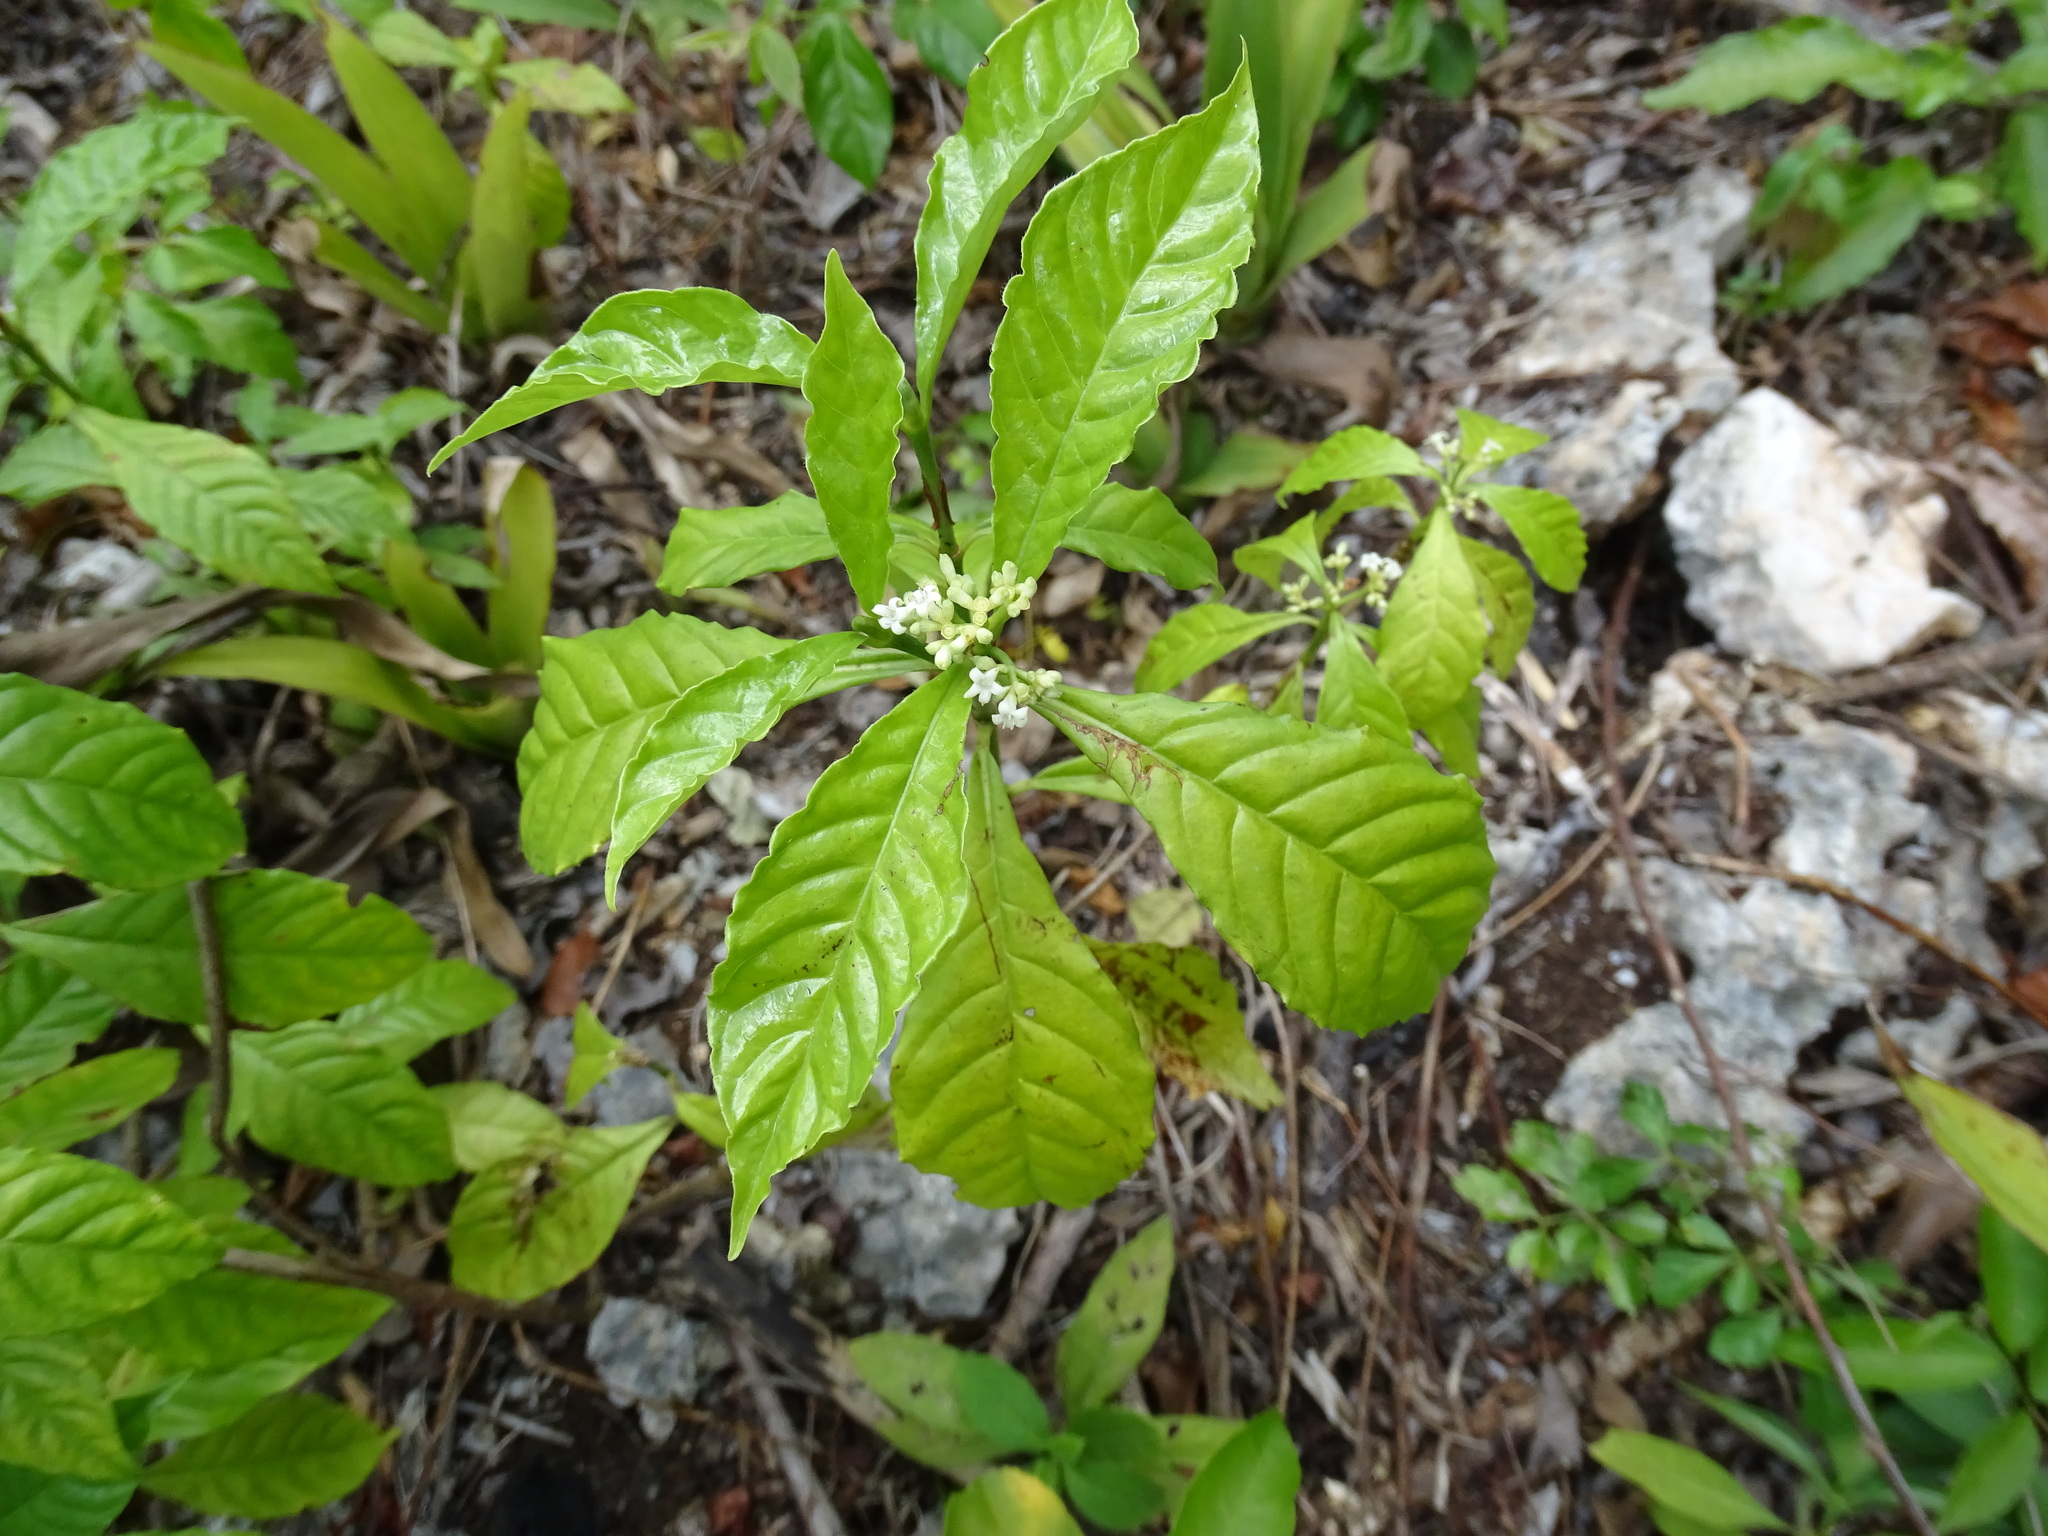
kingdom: Plantae
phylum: Tracheophyta
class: Magnoliopsida
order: Gentianales
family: Rubiaceae
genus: Psychotria
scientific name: Psychotria nervosa
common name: Bastard cankerberry
